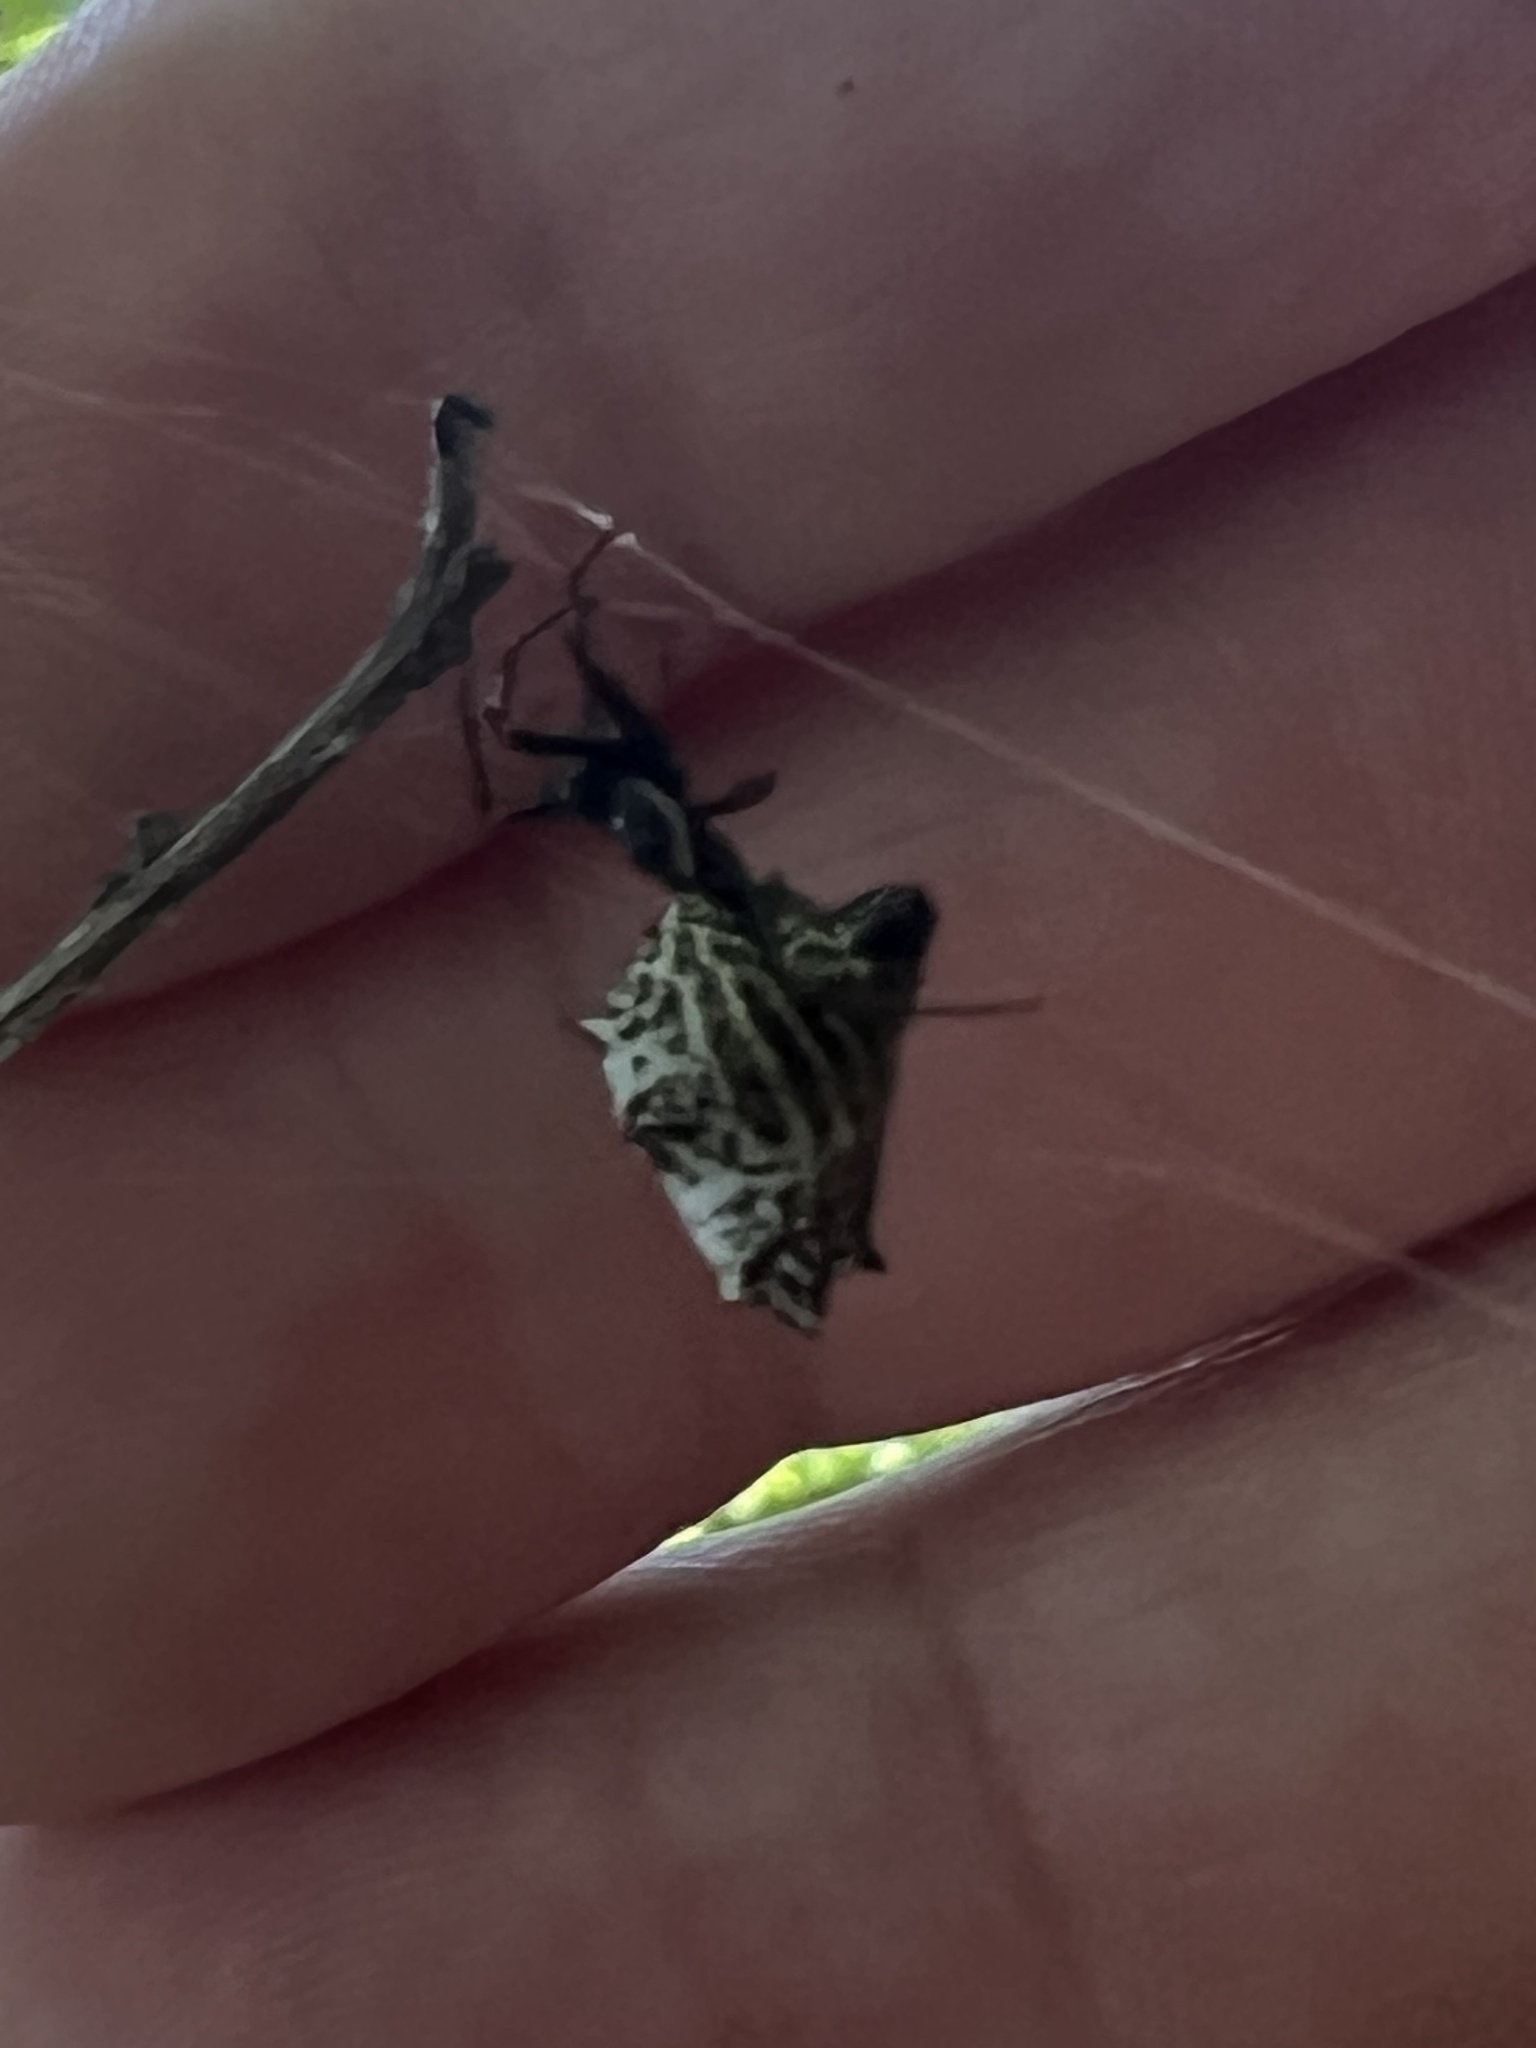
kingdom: Animalia
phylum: Arthropoda
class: Arachnida
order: Araneae
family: Araneidae
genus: Micrathena
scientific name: Micrathena gracilis
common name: Orb weavers
